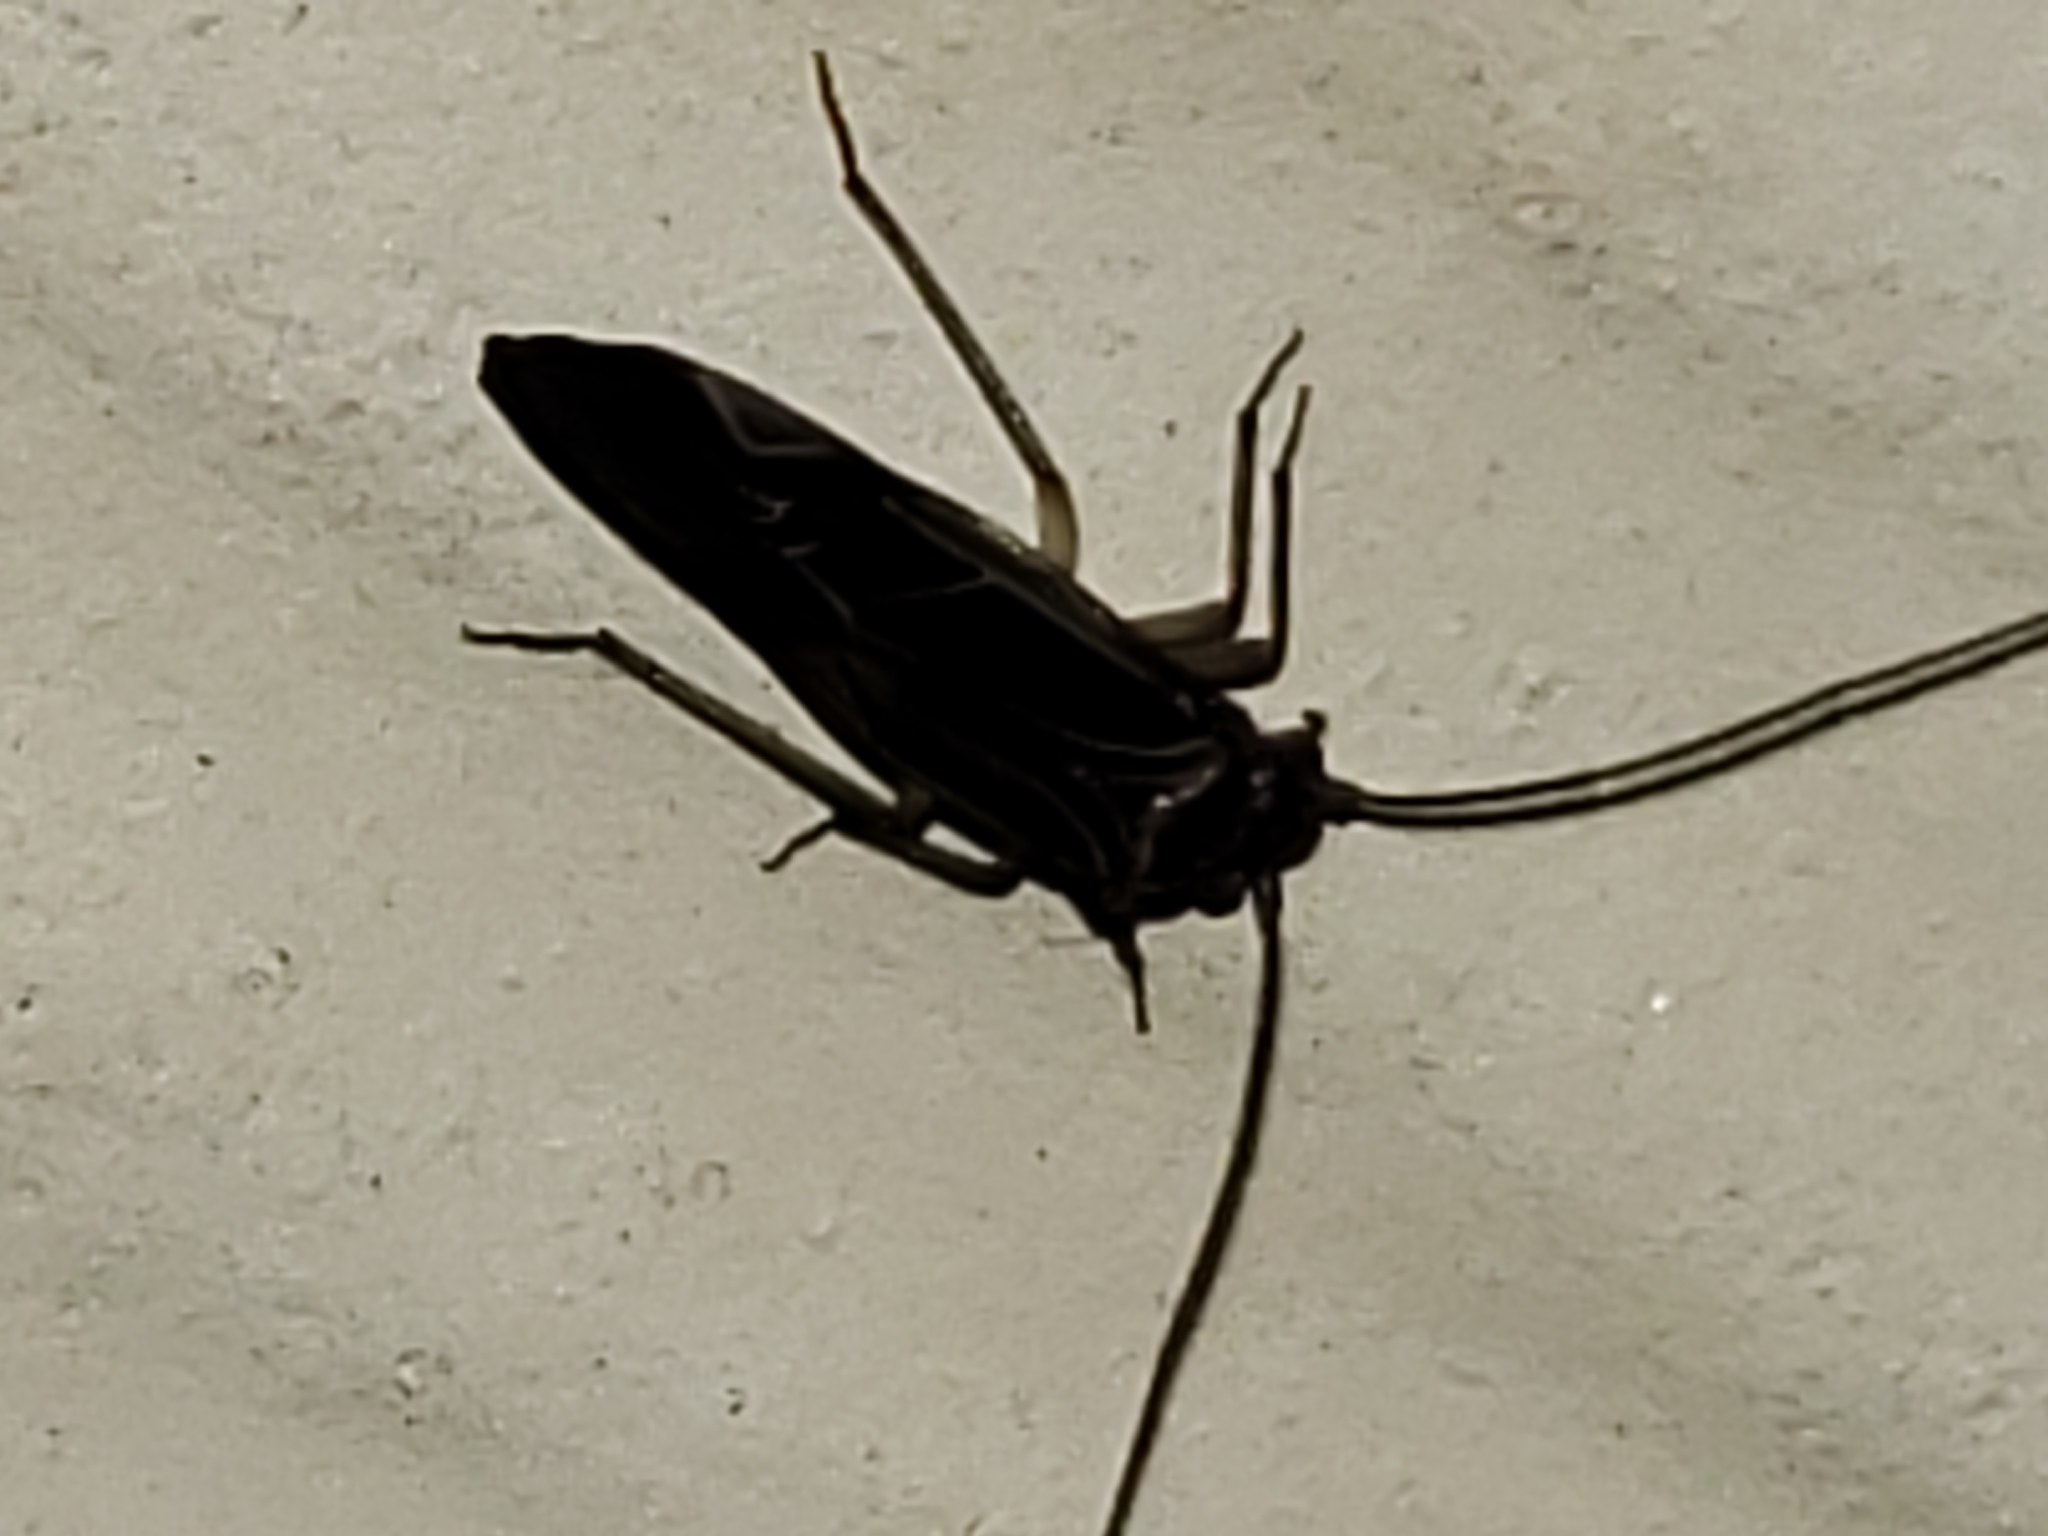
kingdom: Animalia
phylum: Arthropoda
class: Insecta
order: Psocodea
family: Psocidae
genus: Cerastipsocus
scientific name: Cerastipsocus venosus
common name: Tree cattle
